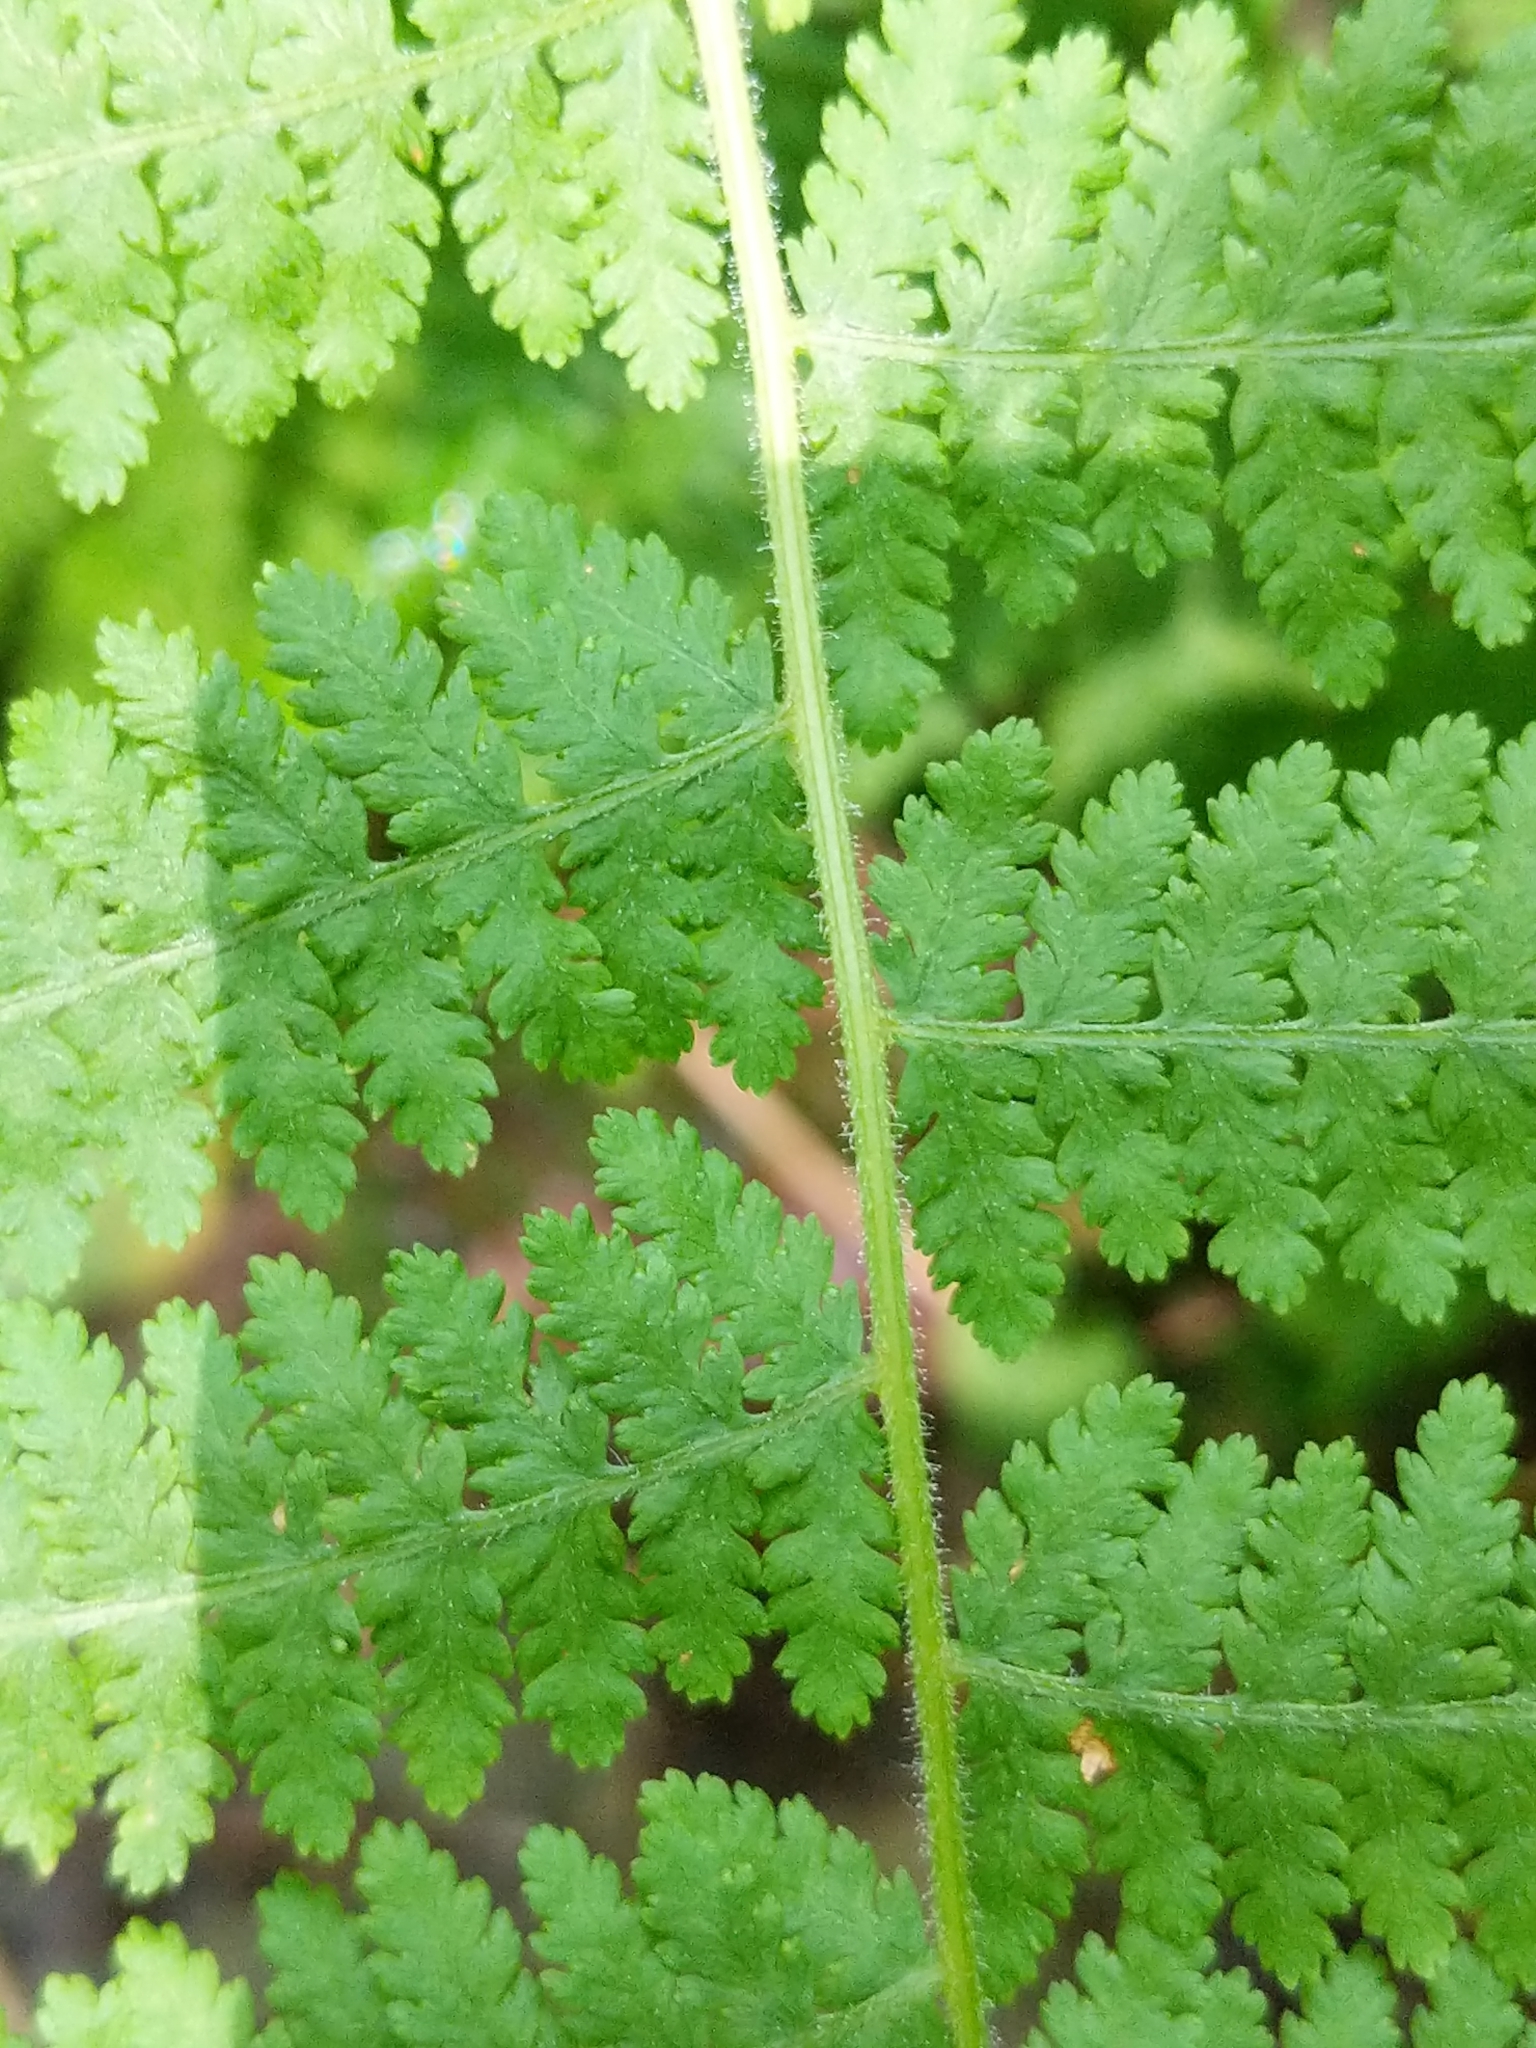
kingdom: Plantae
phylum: Tracheophyta
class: Polypodiopsida
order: Polypodiales
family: Dennstaedtiaceae
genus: Sitobolium
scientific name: Sitobolium punctilobum
